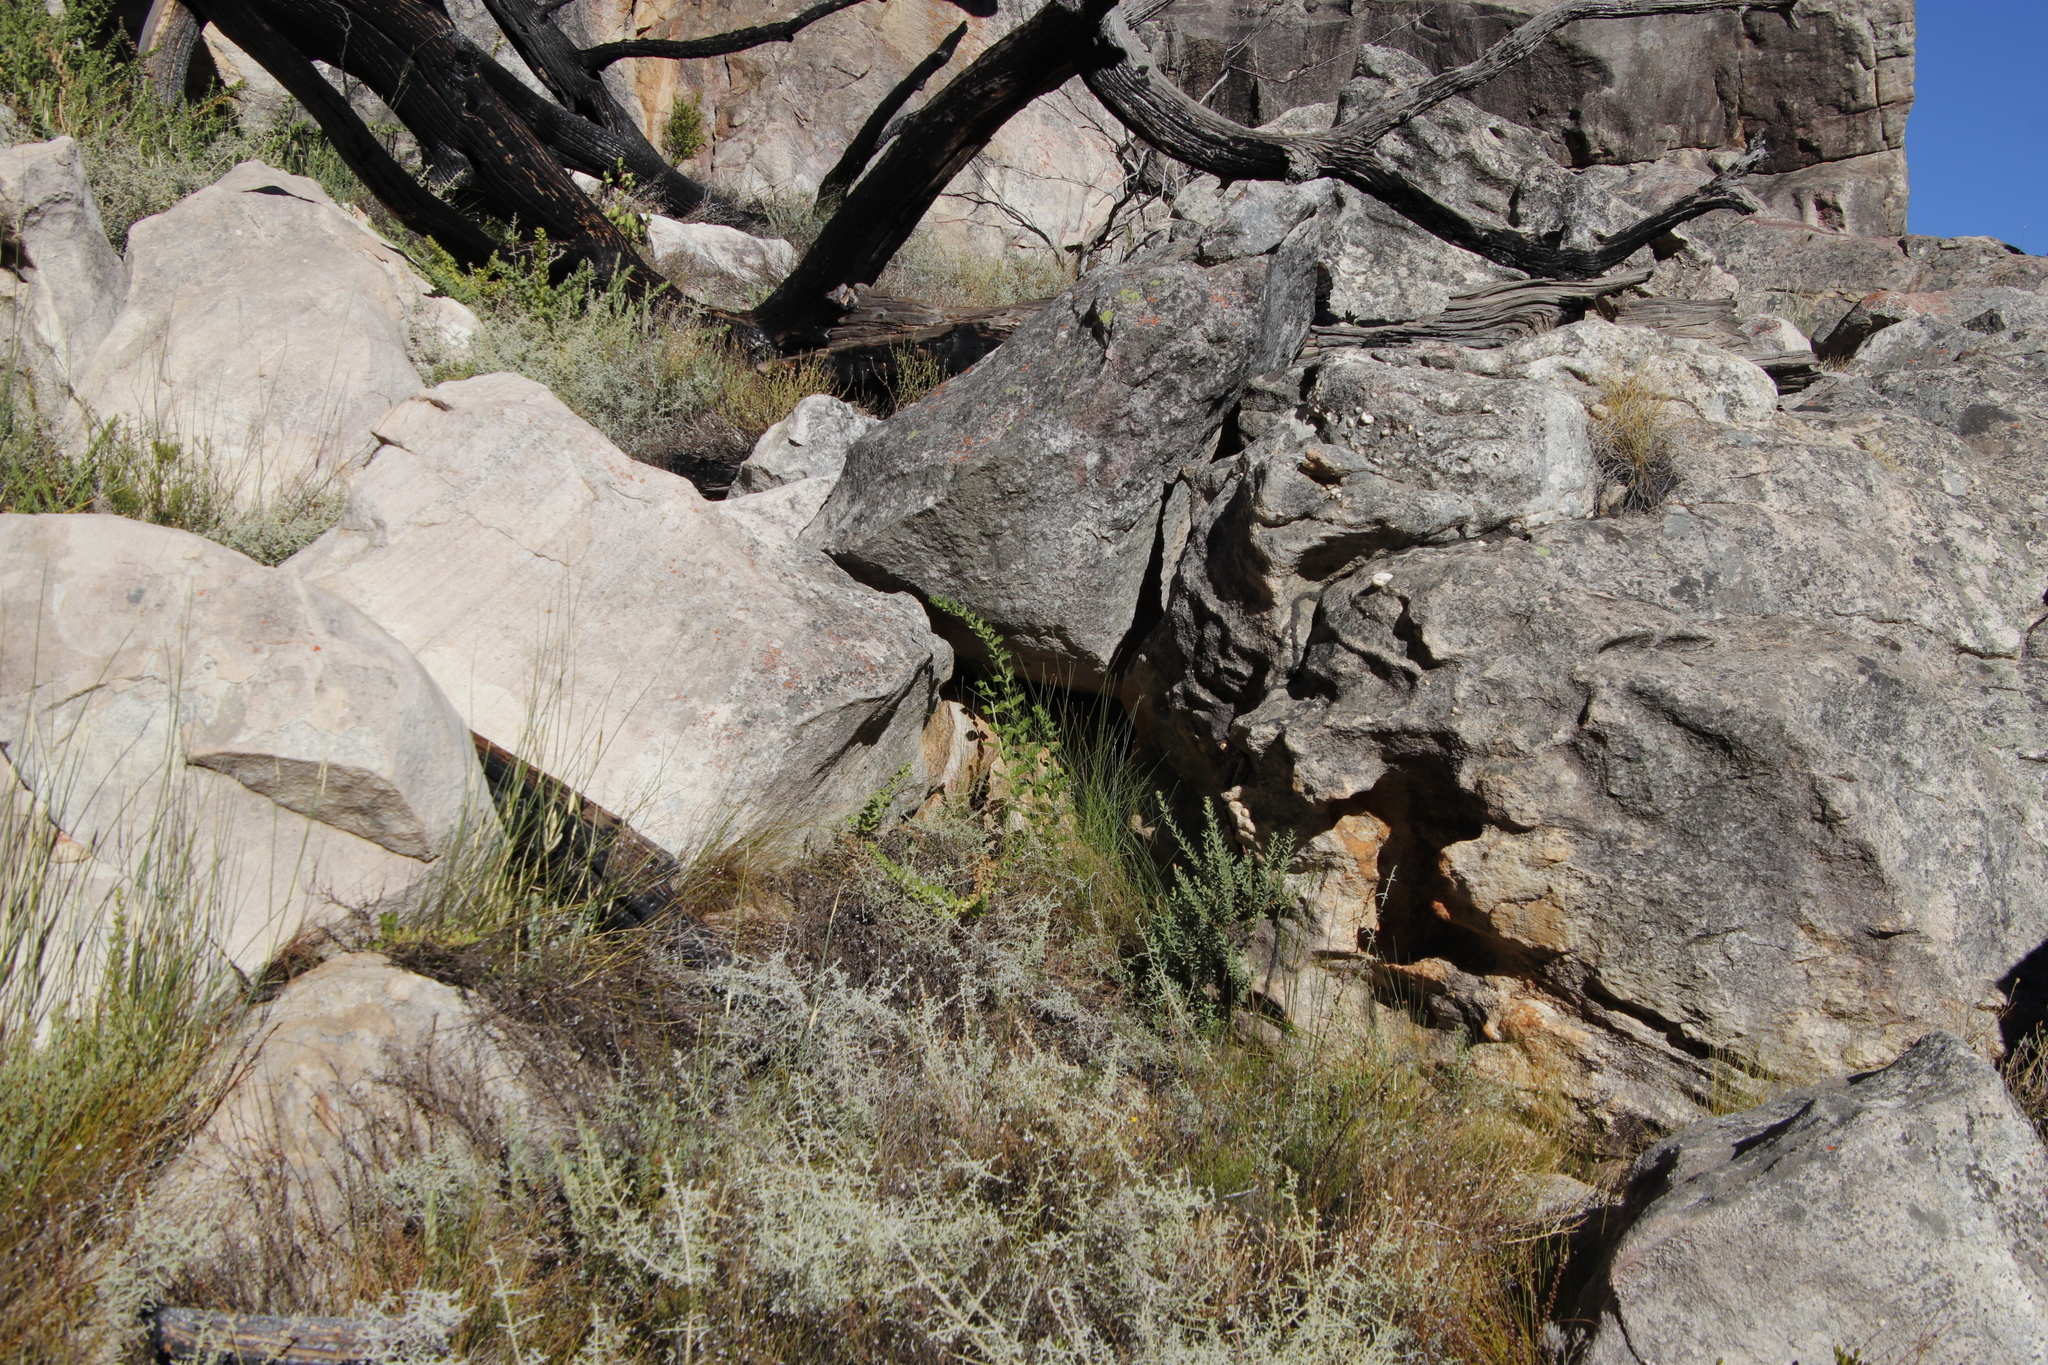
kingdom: Plantae
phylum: Tracheophyta
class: Magnoliopsida
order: Lamiales
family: Scrophulariaceae
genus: Oftia
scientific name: Oftia africana
